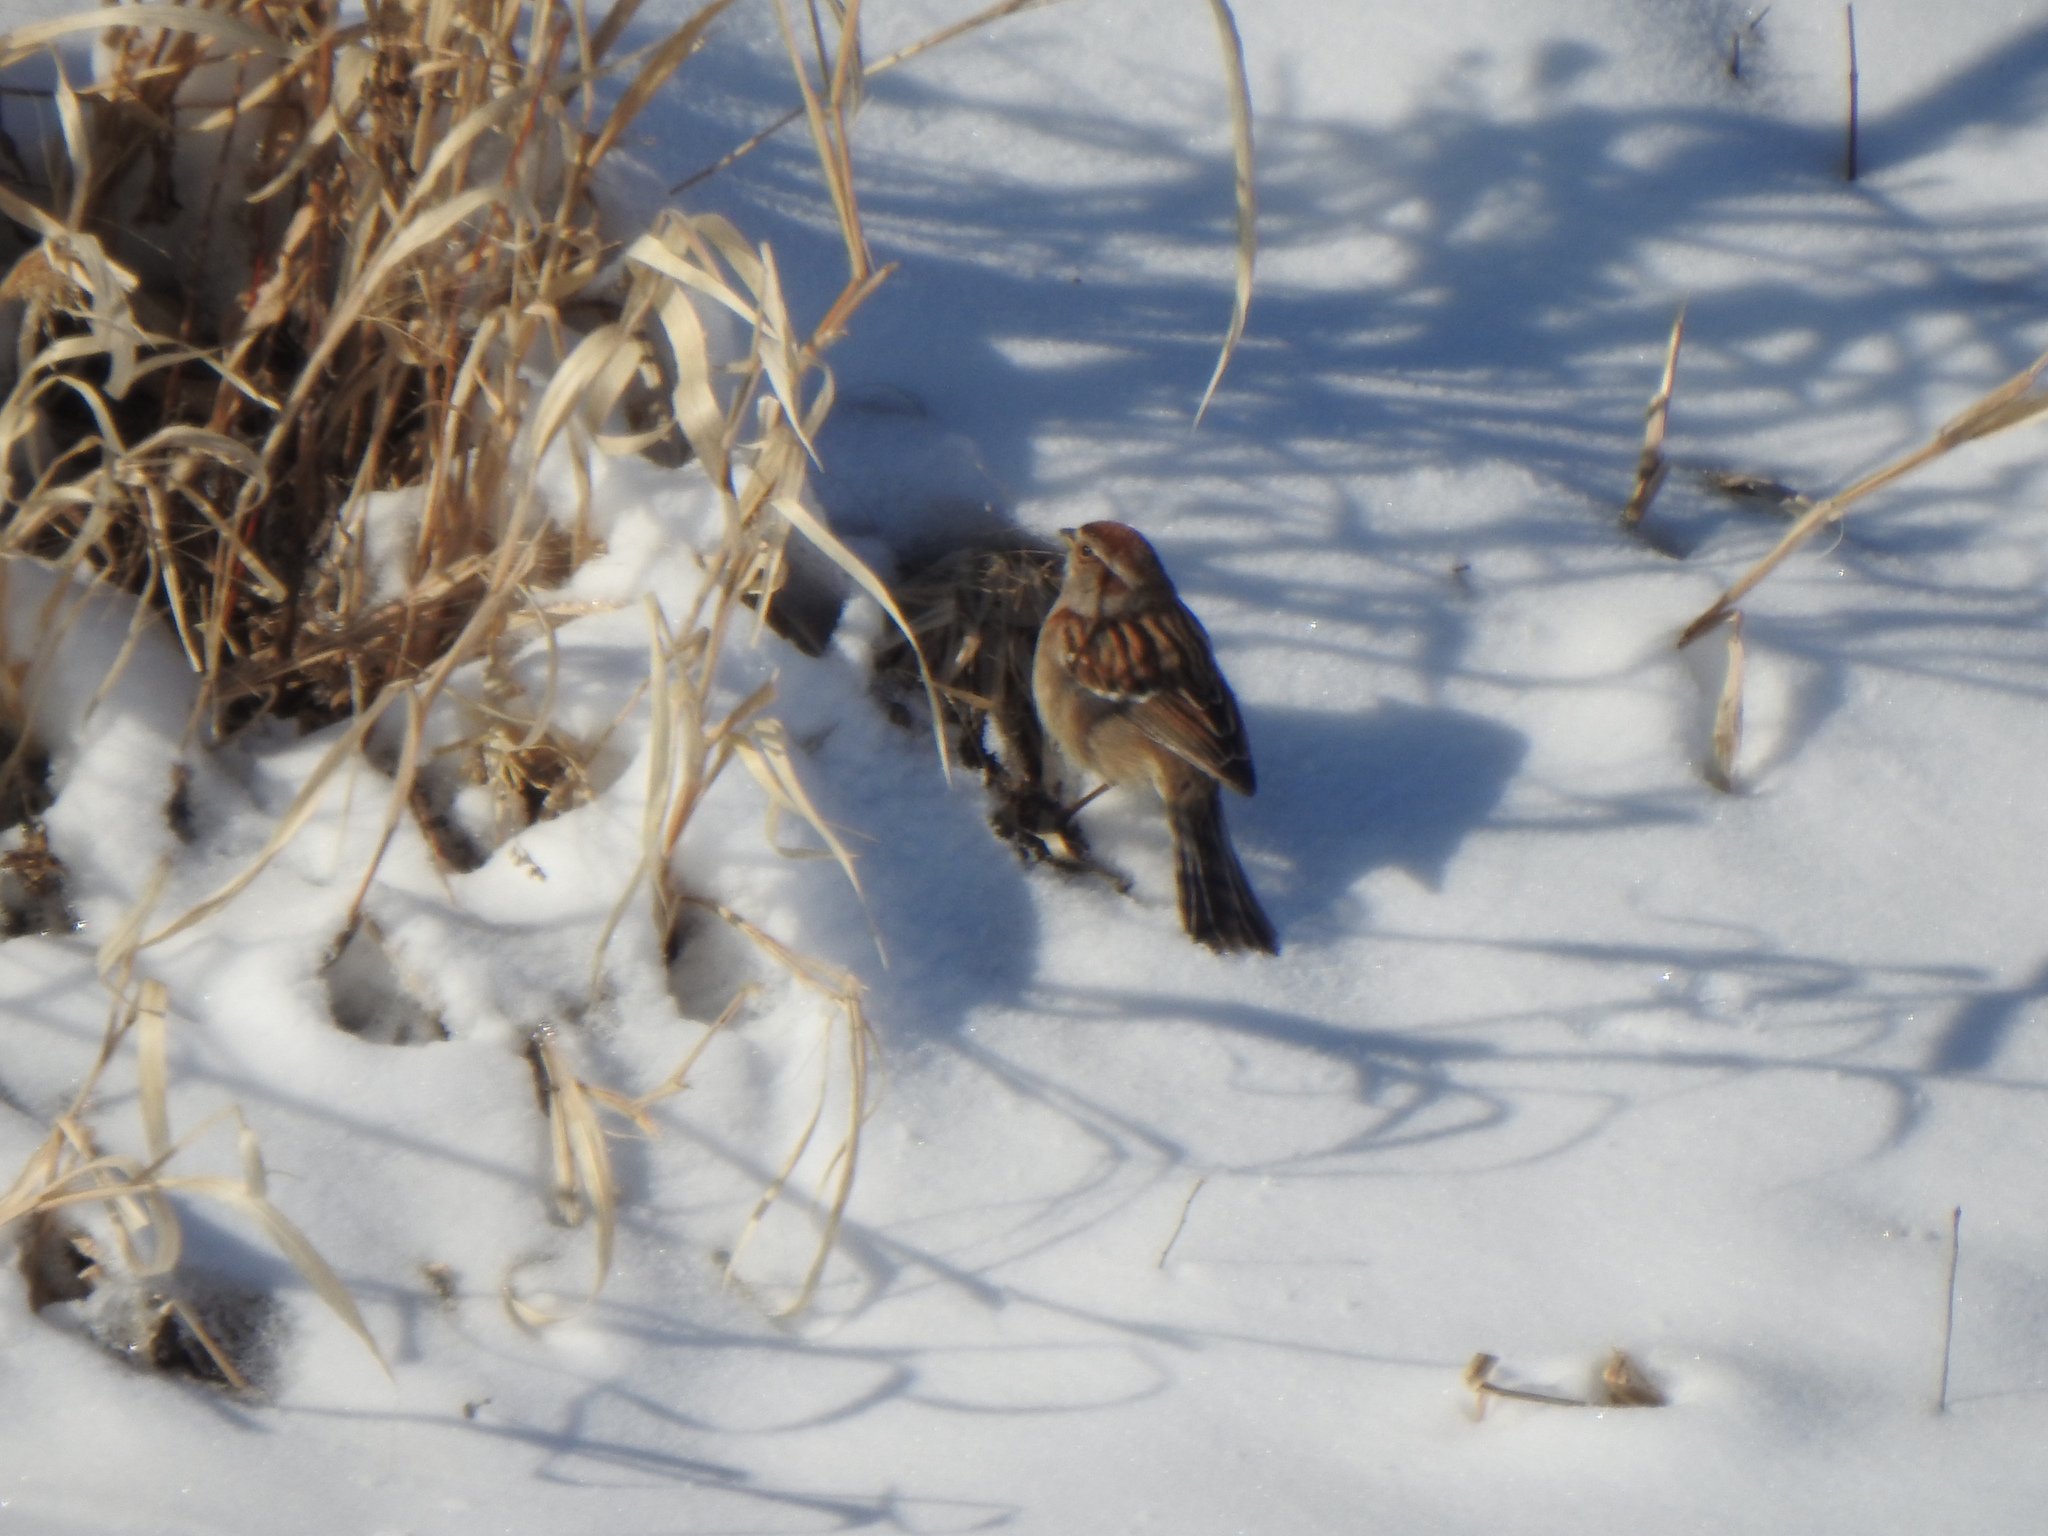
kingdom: Animalia
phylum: Chordata
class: Aves
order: Passeriformes
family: Passerellidae
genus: Spizelloides
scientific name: Spizelloides arborea
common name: American tree sparrow
